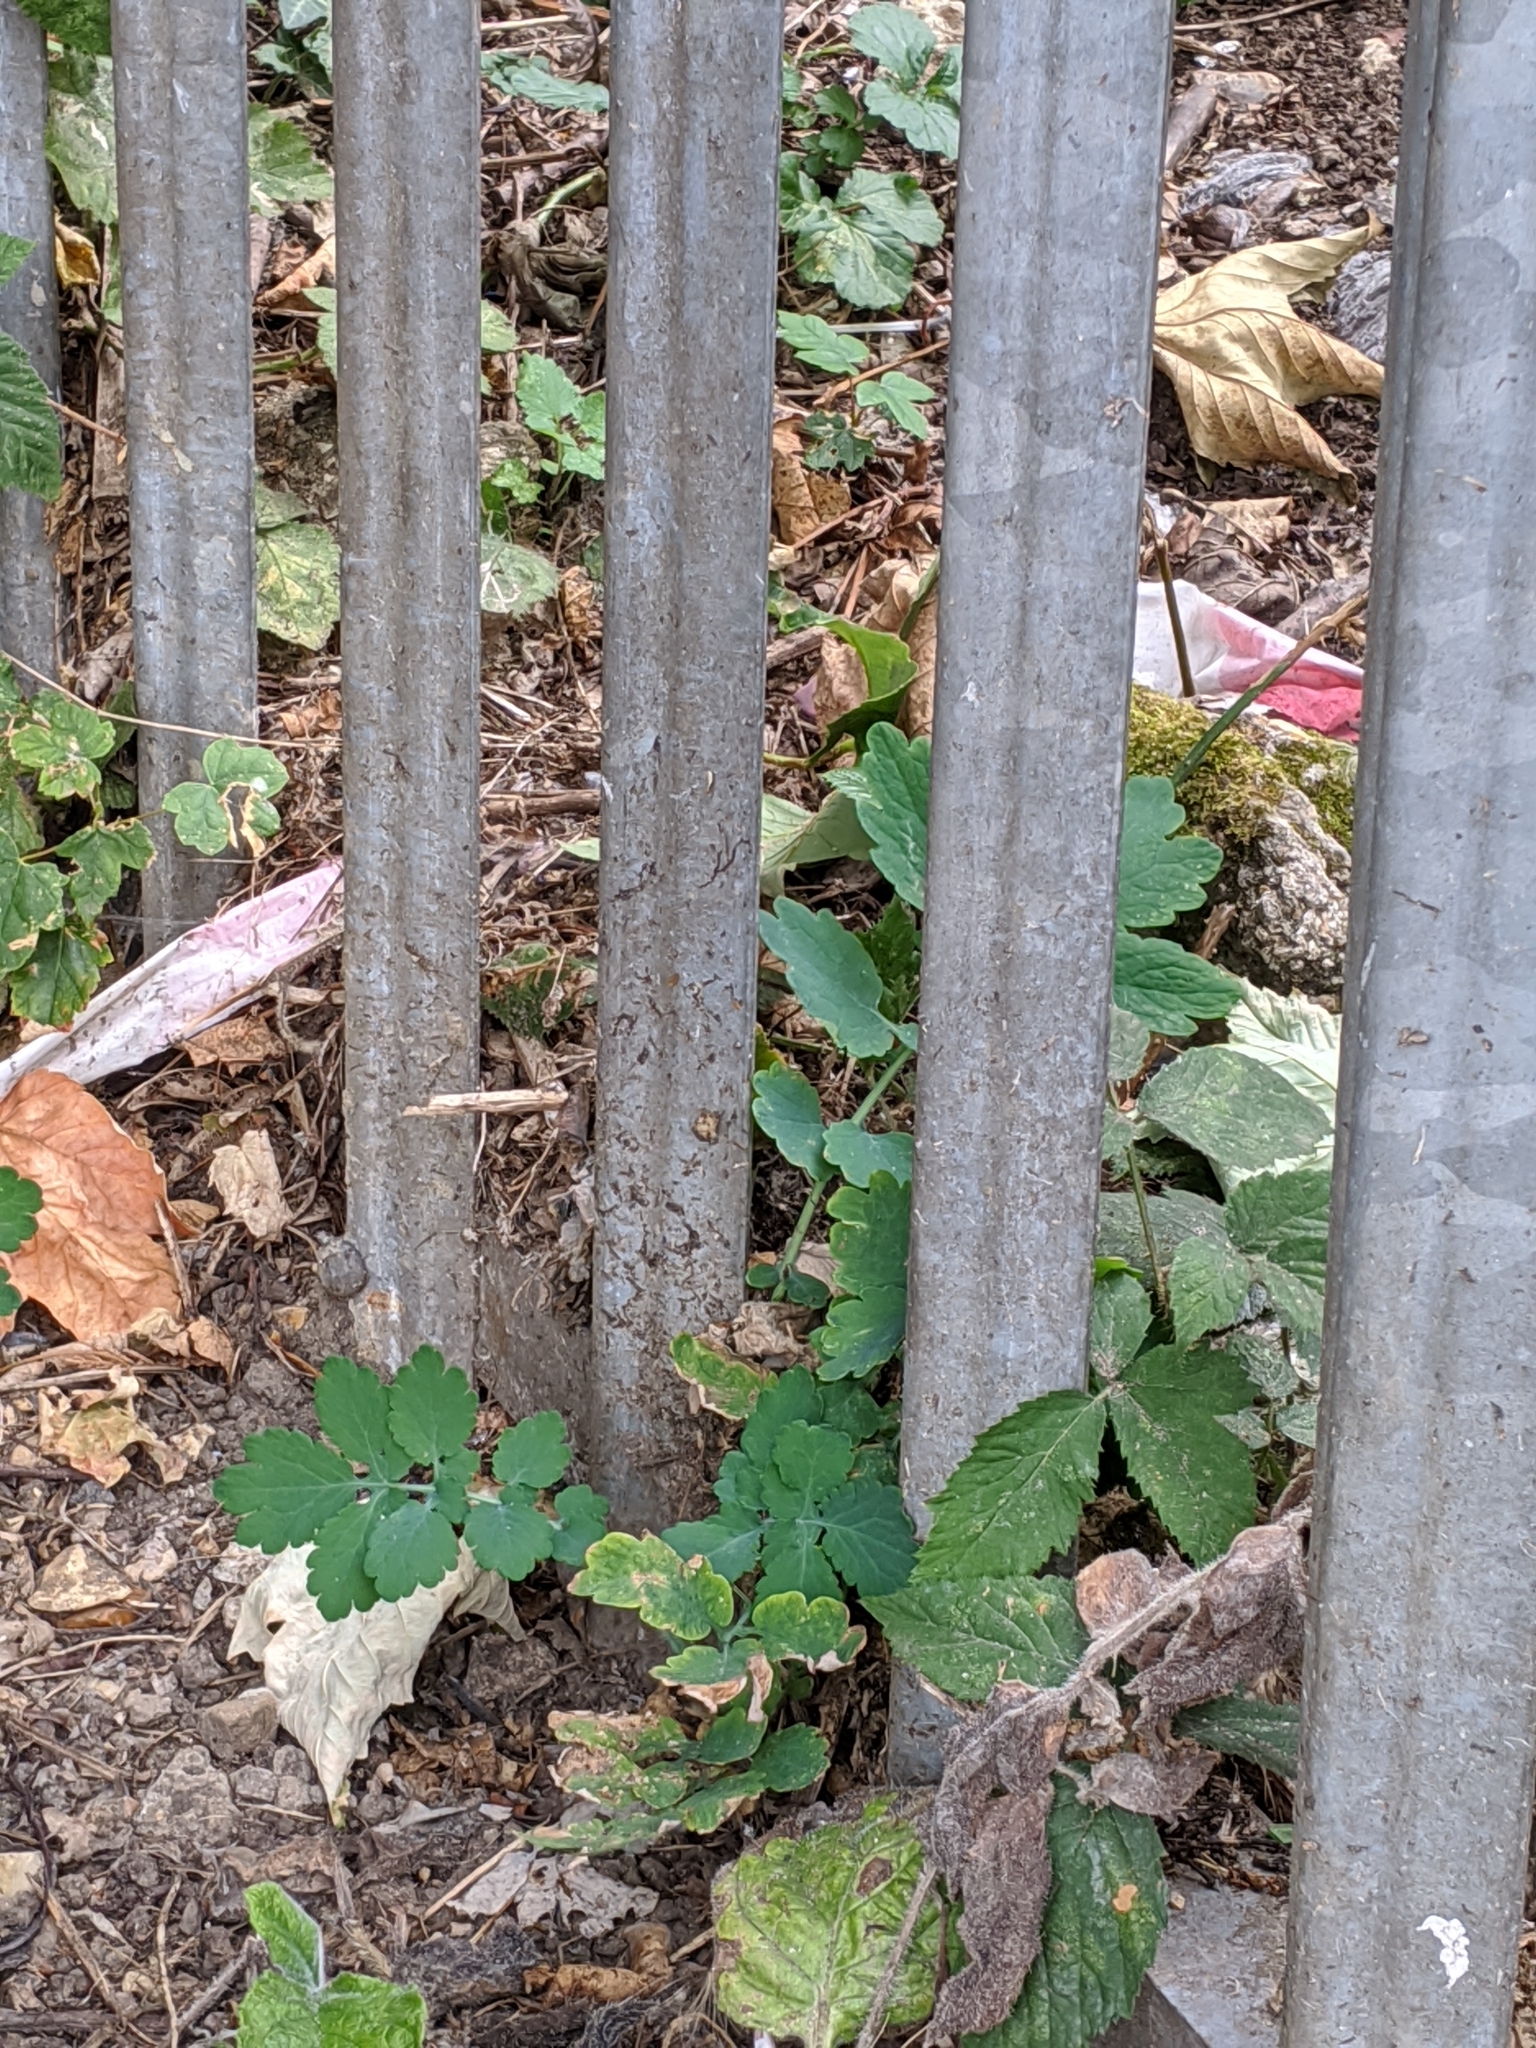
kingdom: Plantae
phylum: Tracheophyta
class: Magnoliopsida
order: Ranunculales
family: Papaveraceae
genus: Chelidonium
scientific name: Chelidonium majus
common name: Greater celandine
